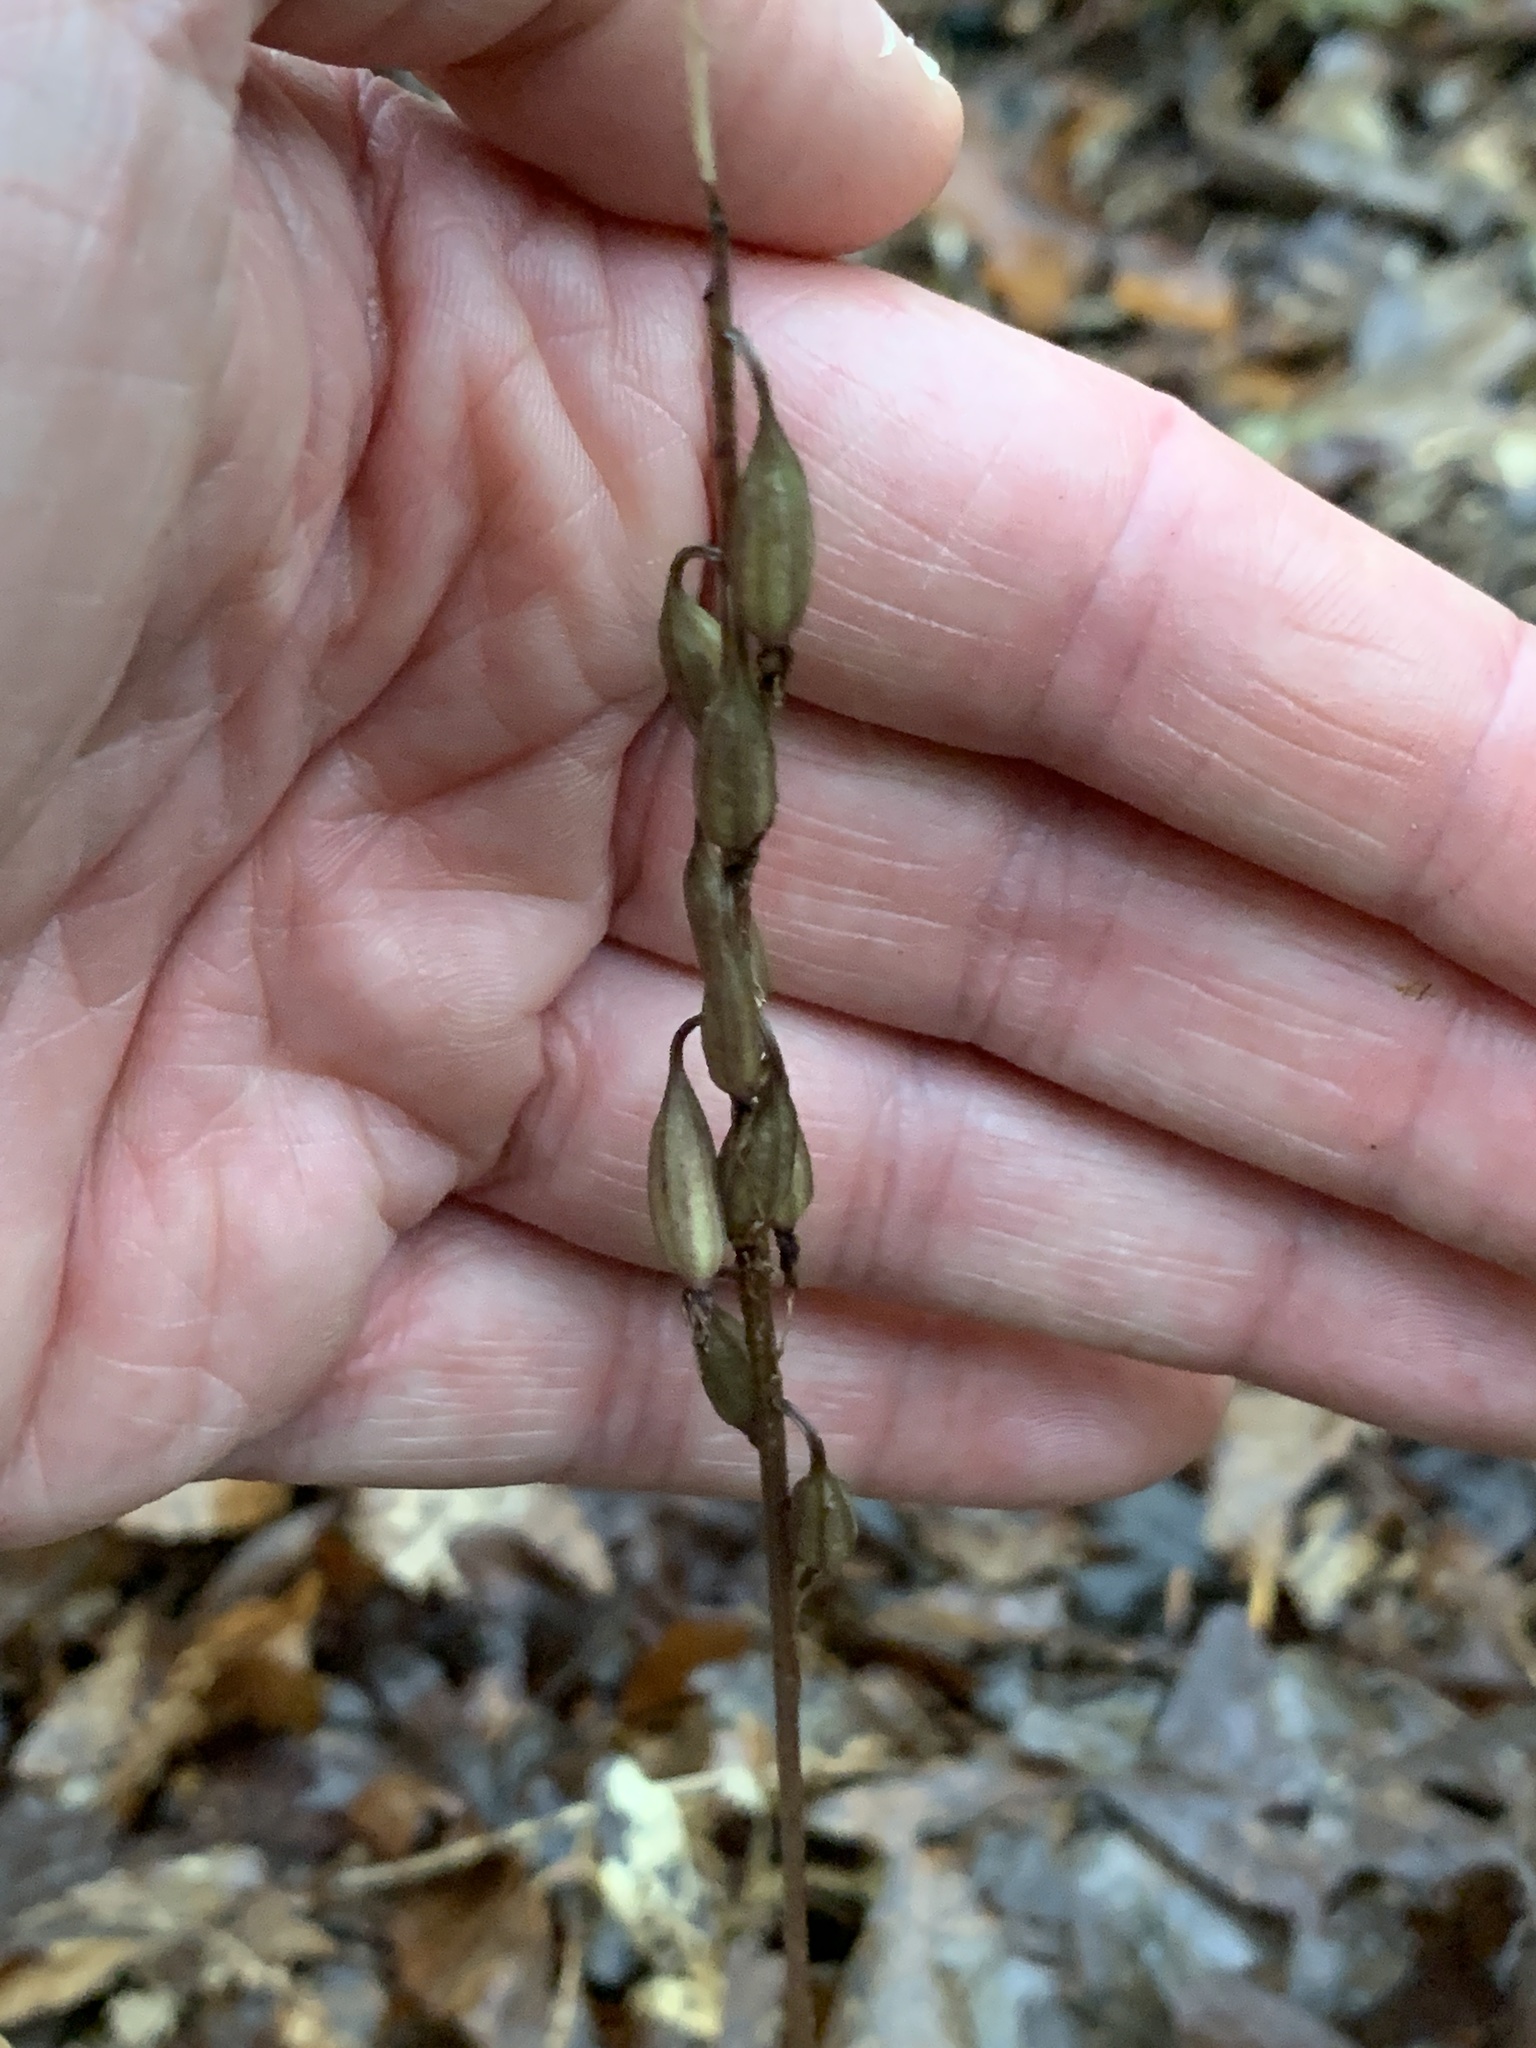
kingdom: Plantae
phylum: Tracheophyta
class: Liliopsida
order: Asparagales
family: Orchidaceae
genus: Tipularia
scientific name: Tipularia discolor
